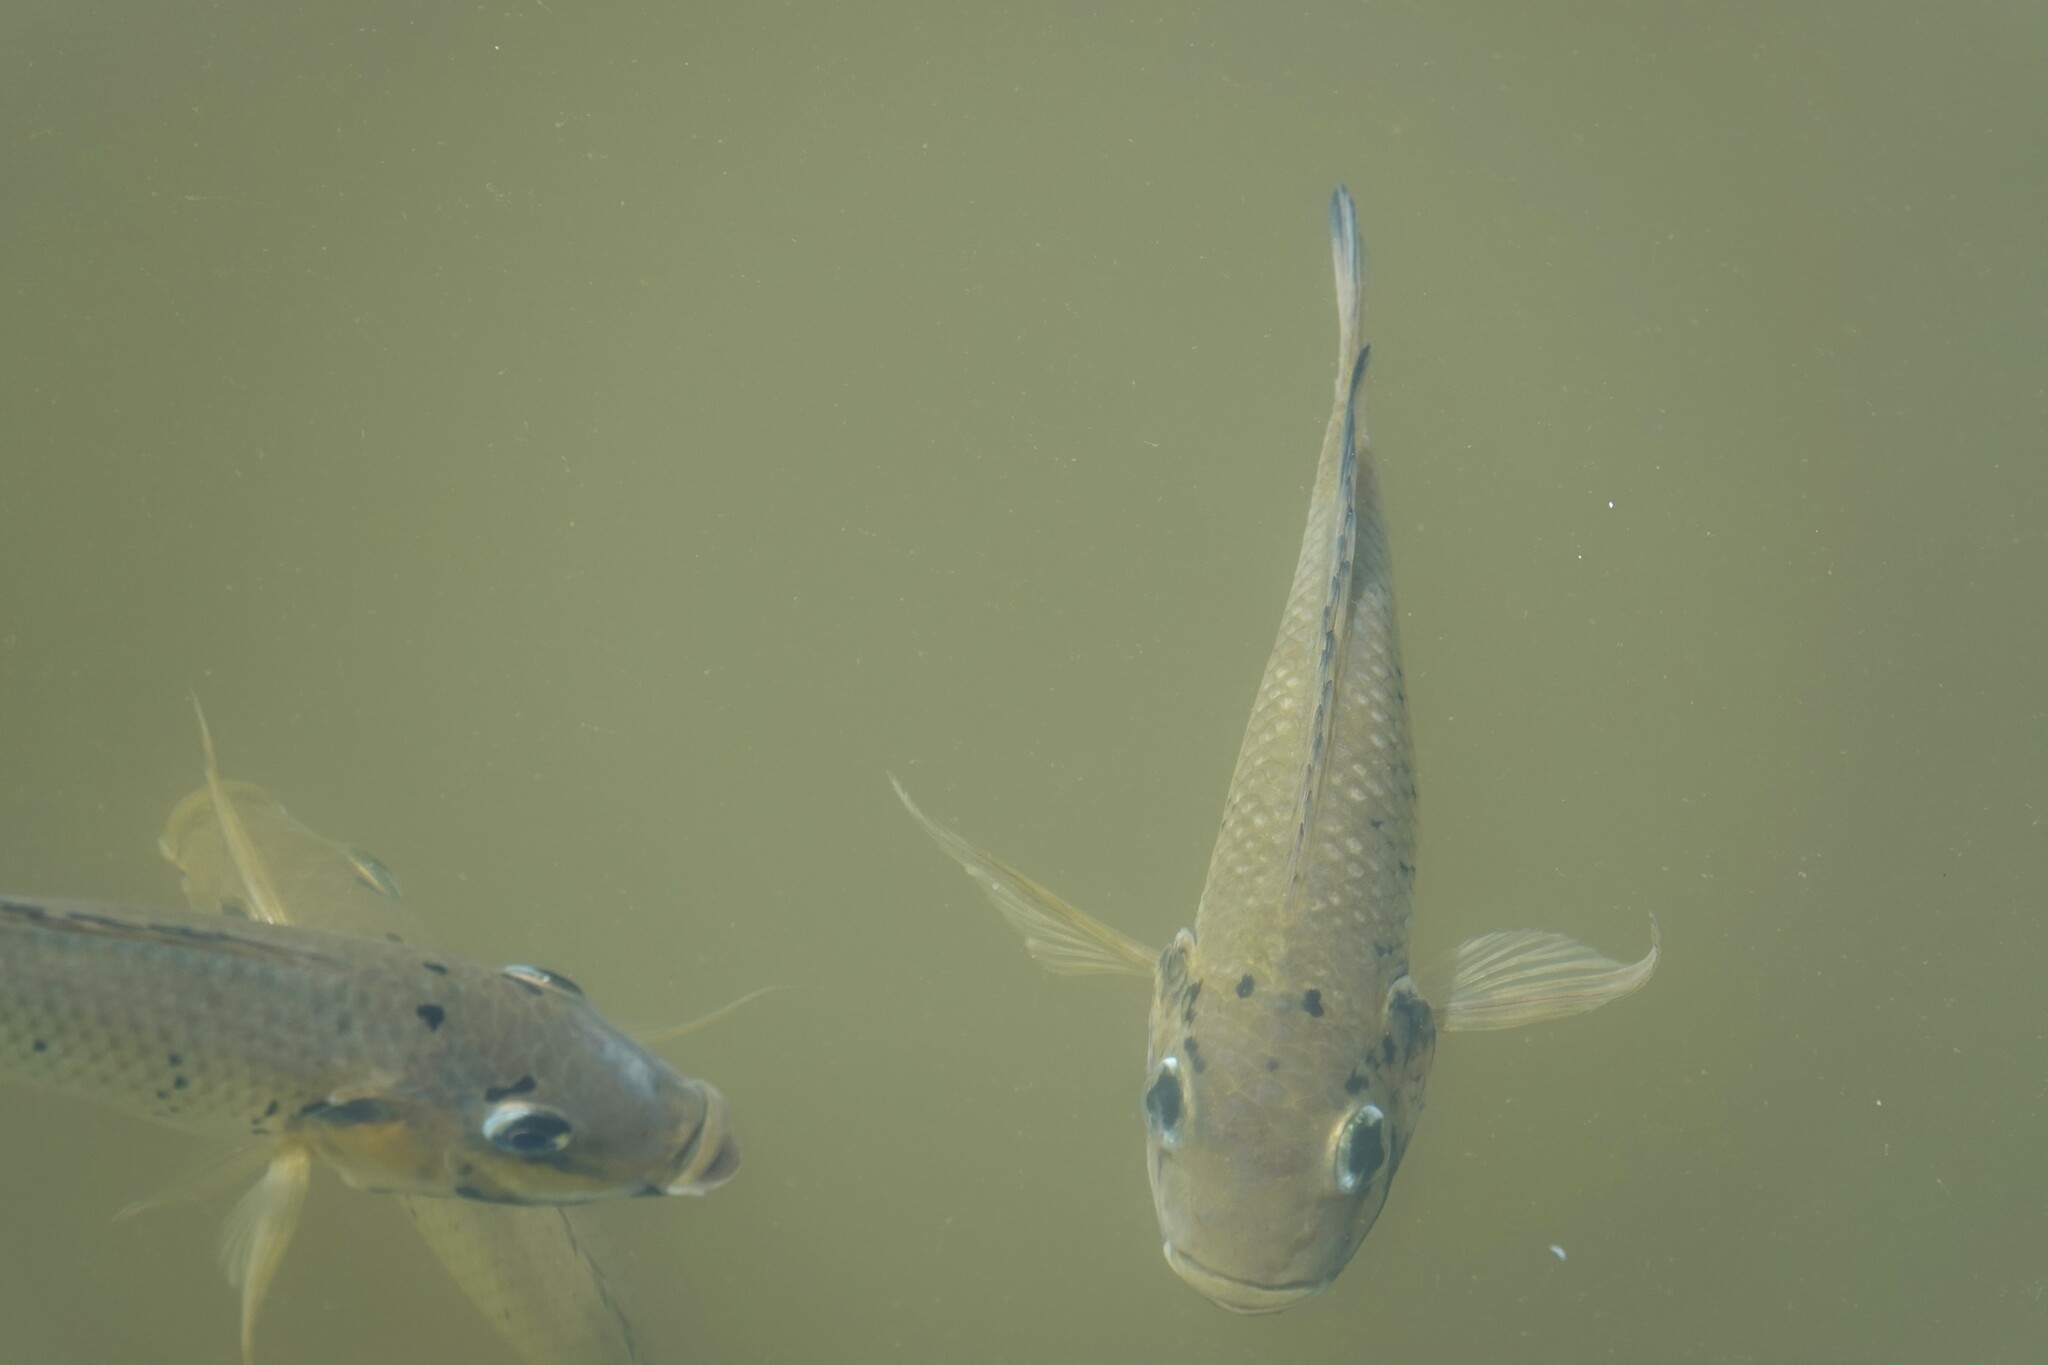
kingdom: Animalia
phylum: Chordata
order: Perciformes
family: Cichlidae
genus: Sarotherodon
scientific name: Sarotherodon melanotheron
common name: Blackchin tilapia
